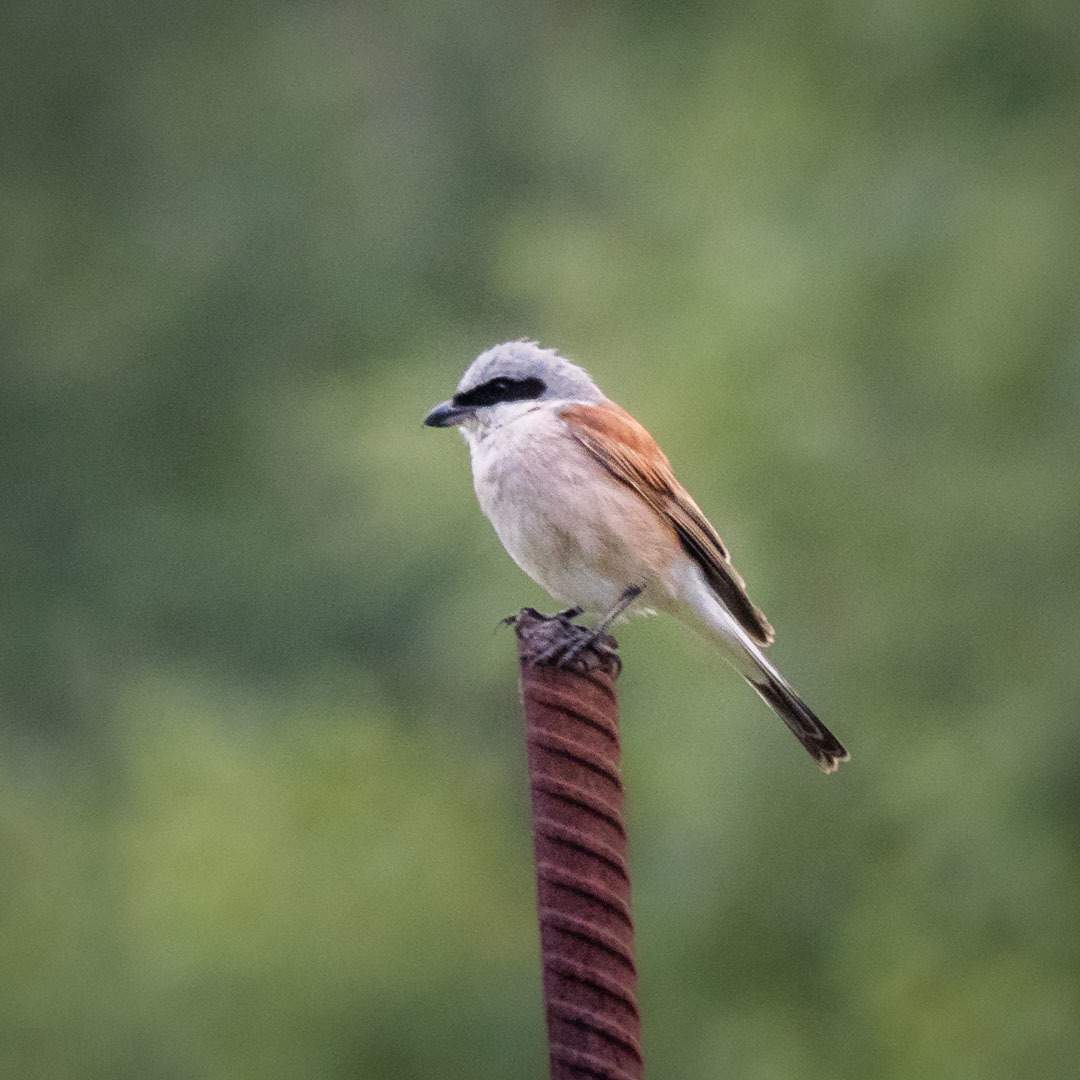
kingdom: Animalia
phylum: Chordata
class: Aves
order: Passeriformes
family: Laniidae
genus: Lanius
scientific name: Lanius collurio
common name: Red-backed shrike
